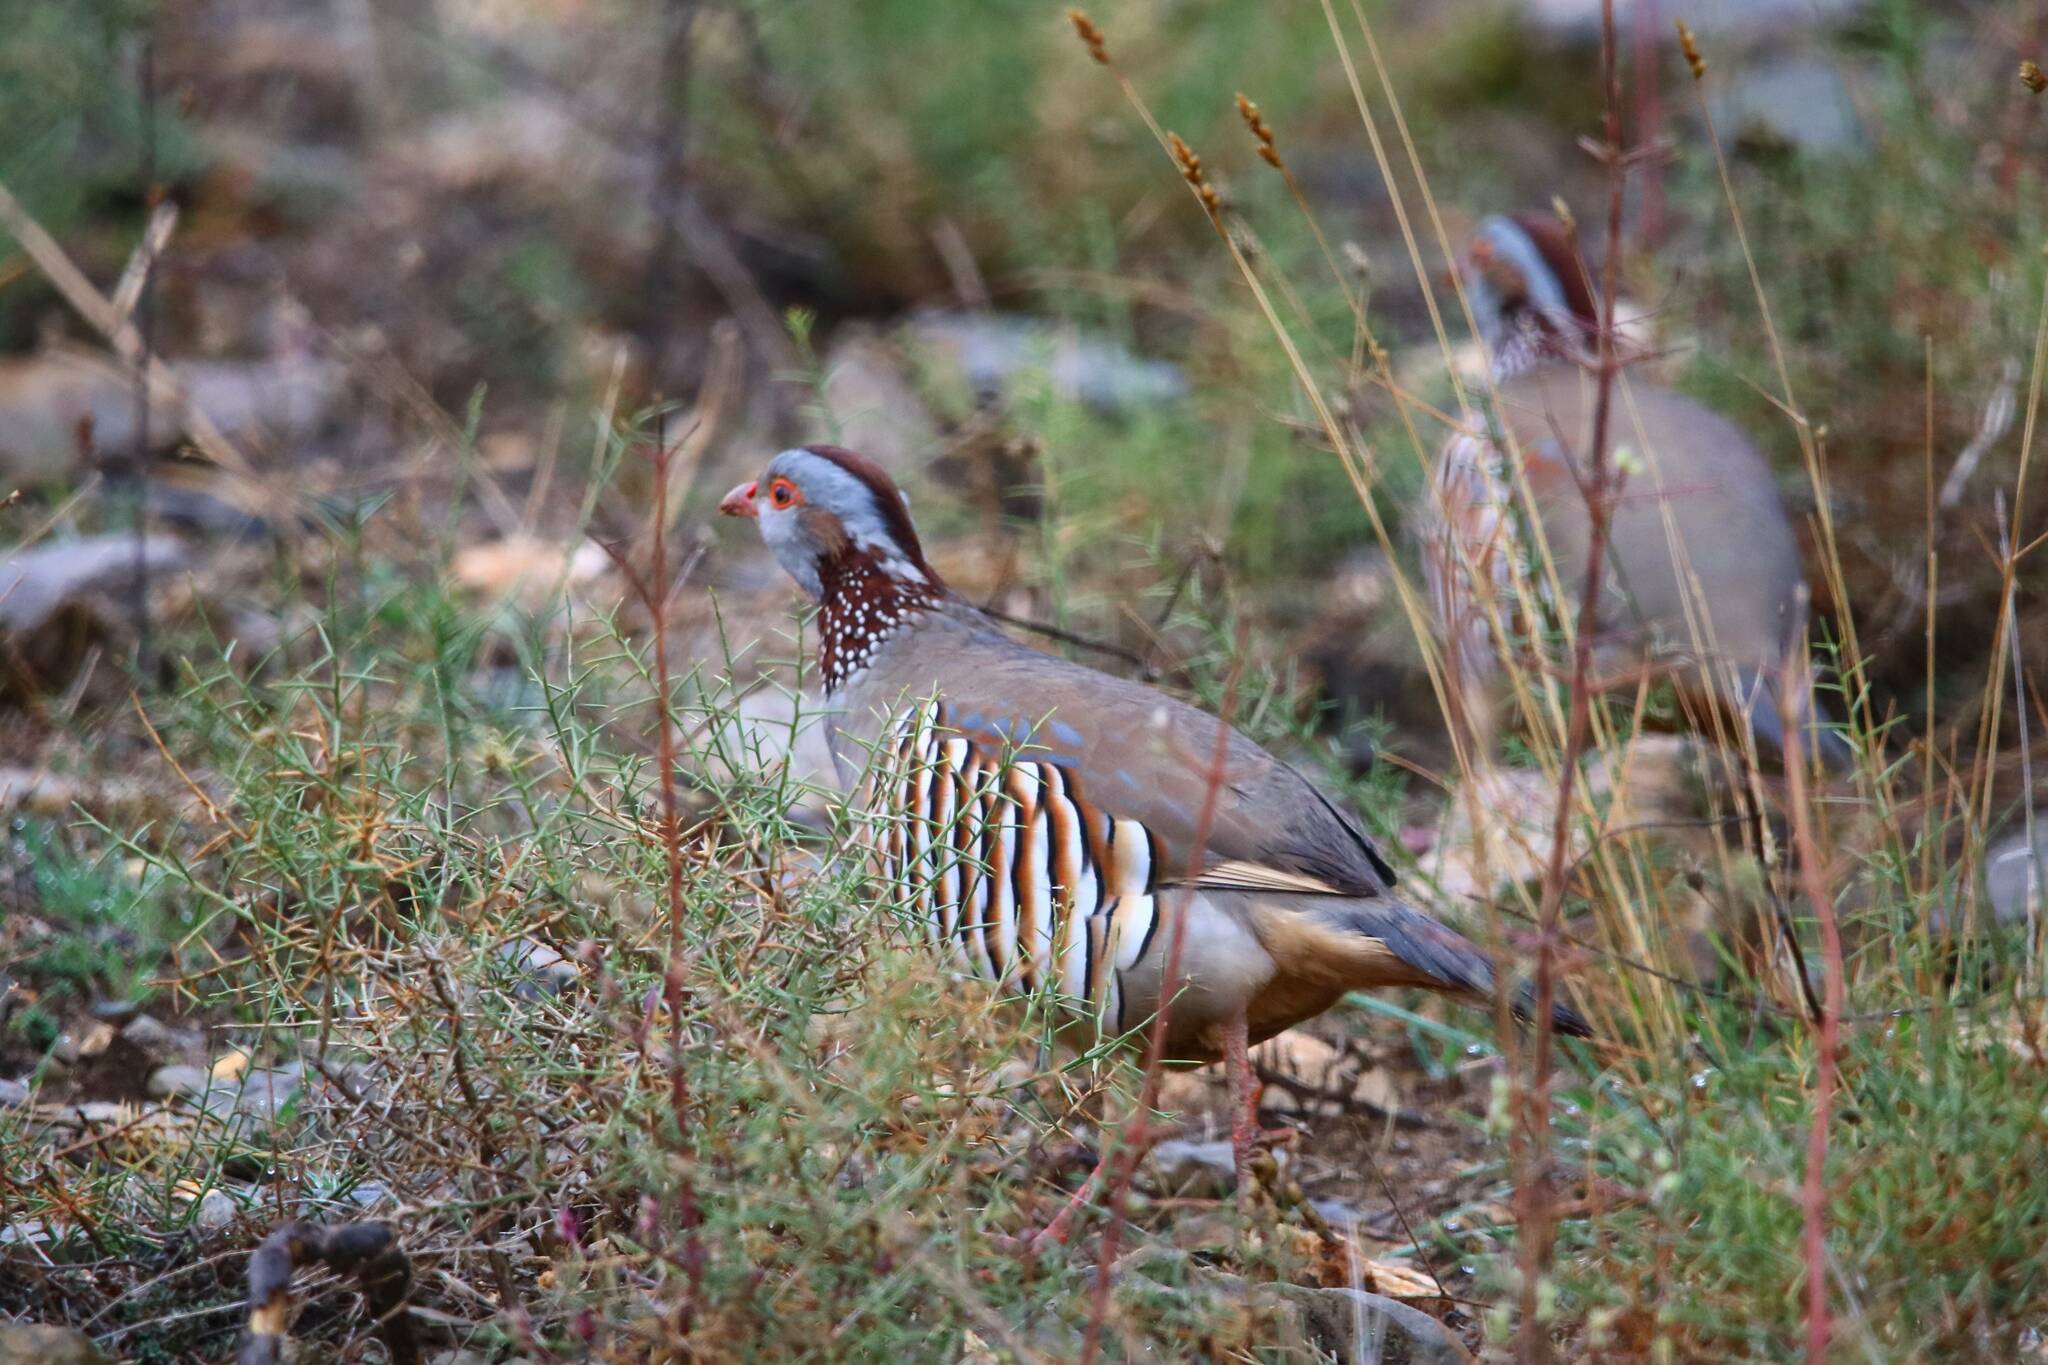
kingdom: Animalia
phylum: Chordata
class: Aves
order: Galliformes
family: Phasianidae
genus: Alectoris
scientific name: Alectoris barbara
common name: Barbary partridge
